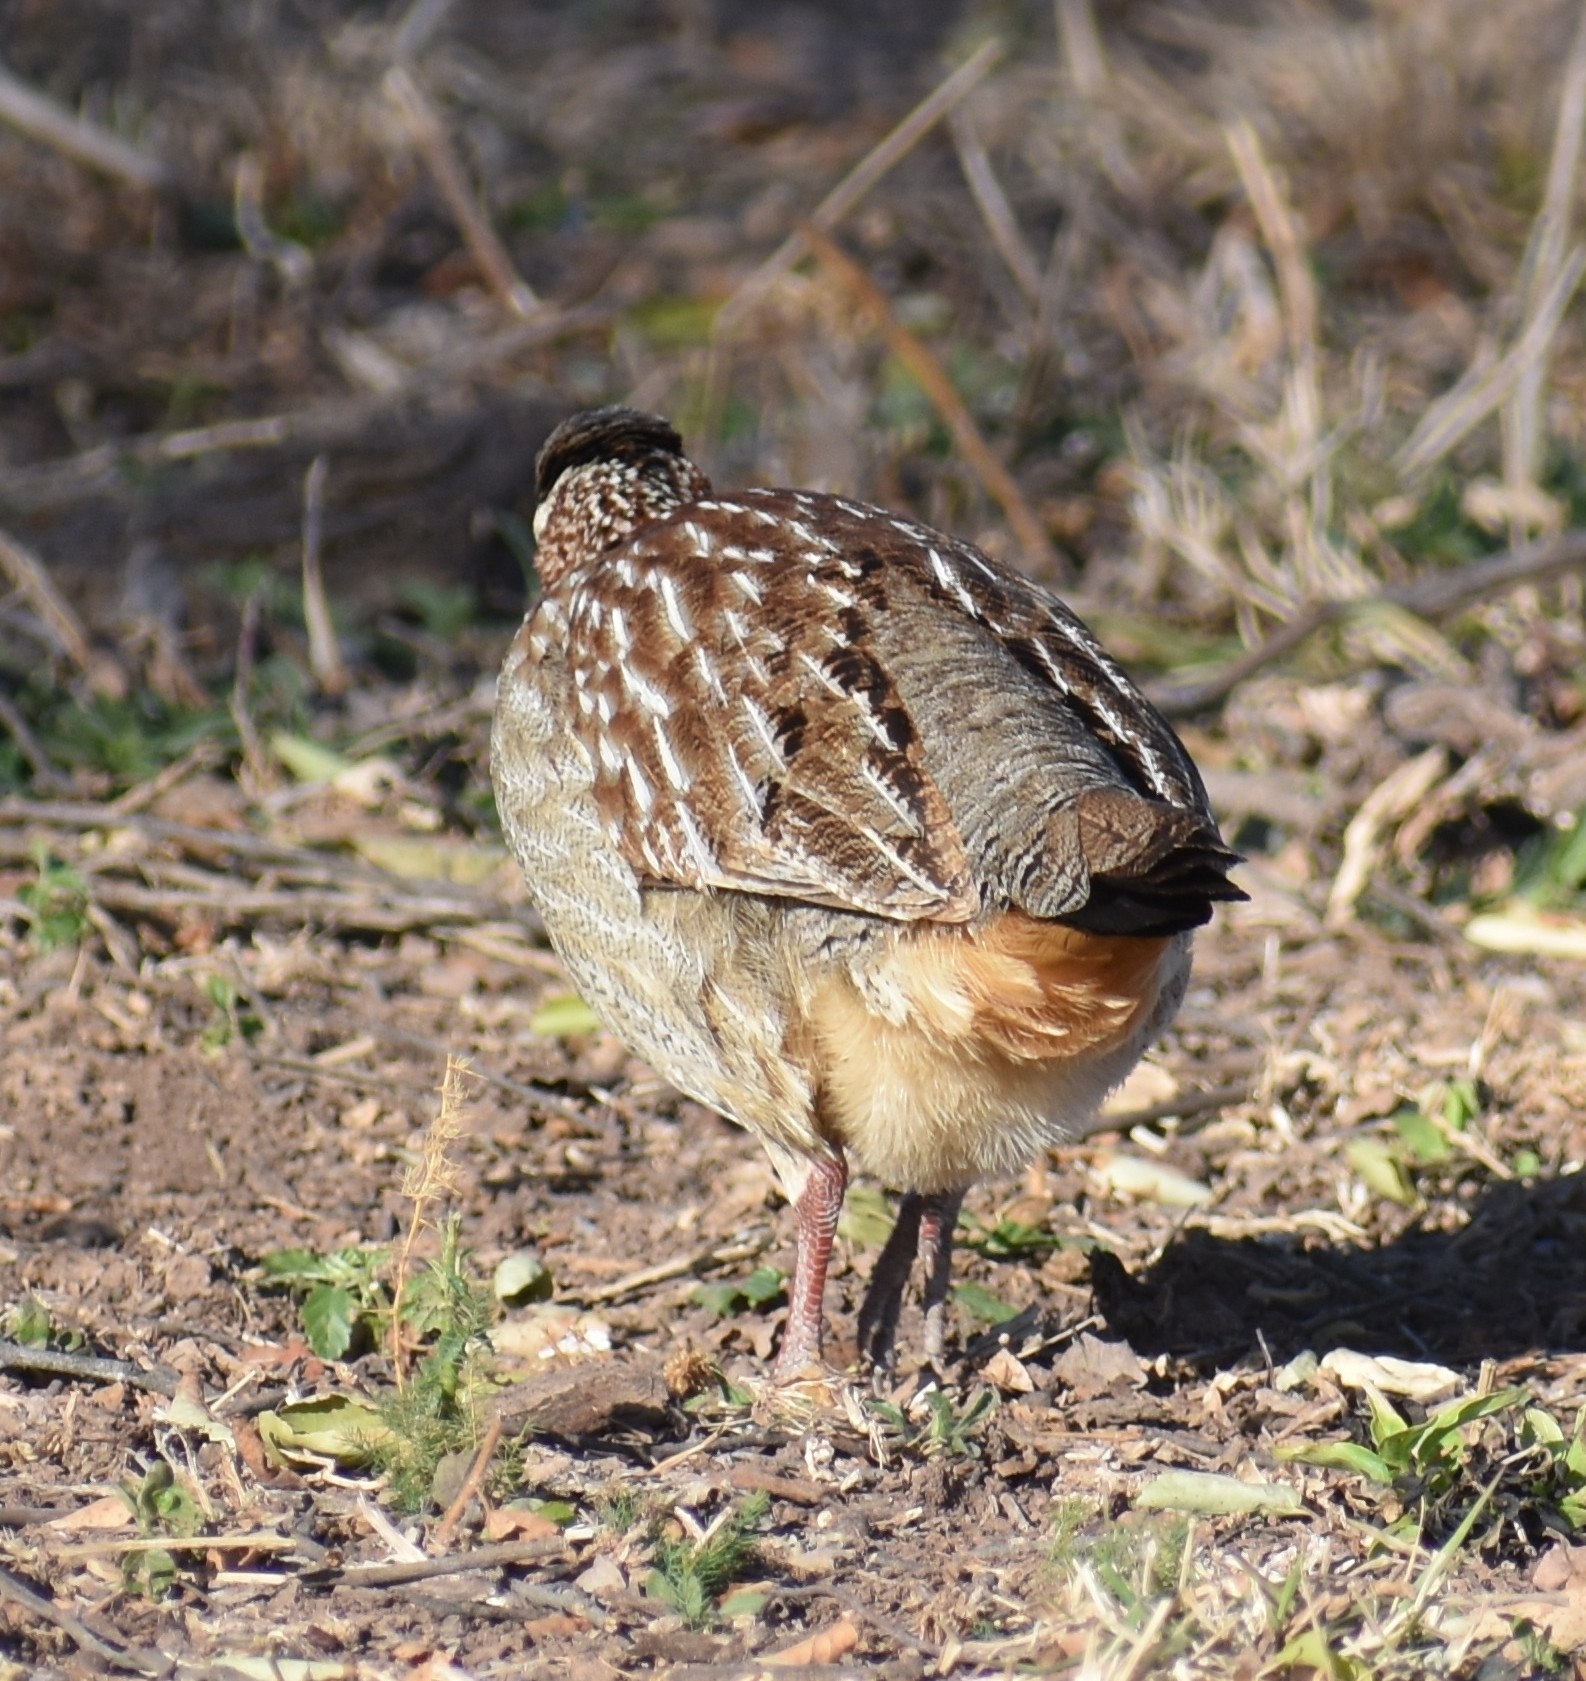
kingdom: Animalia
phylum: Chordata
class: Aves
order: Galliformes
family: Phasianidae
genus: Ortygornis
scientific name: Ortygornis sephaena
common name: Crested francolin
